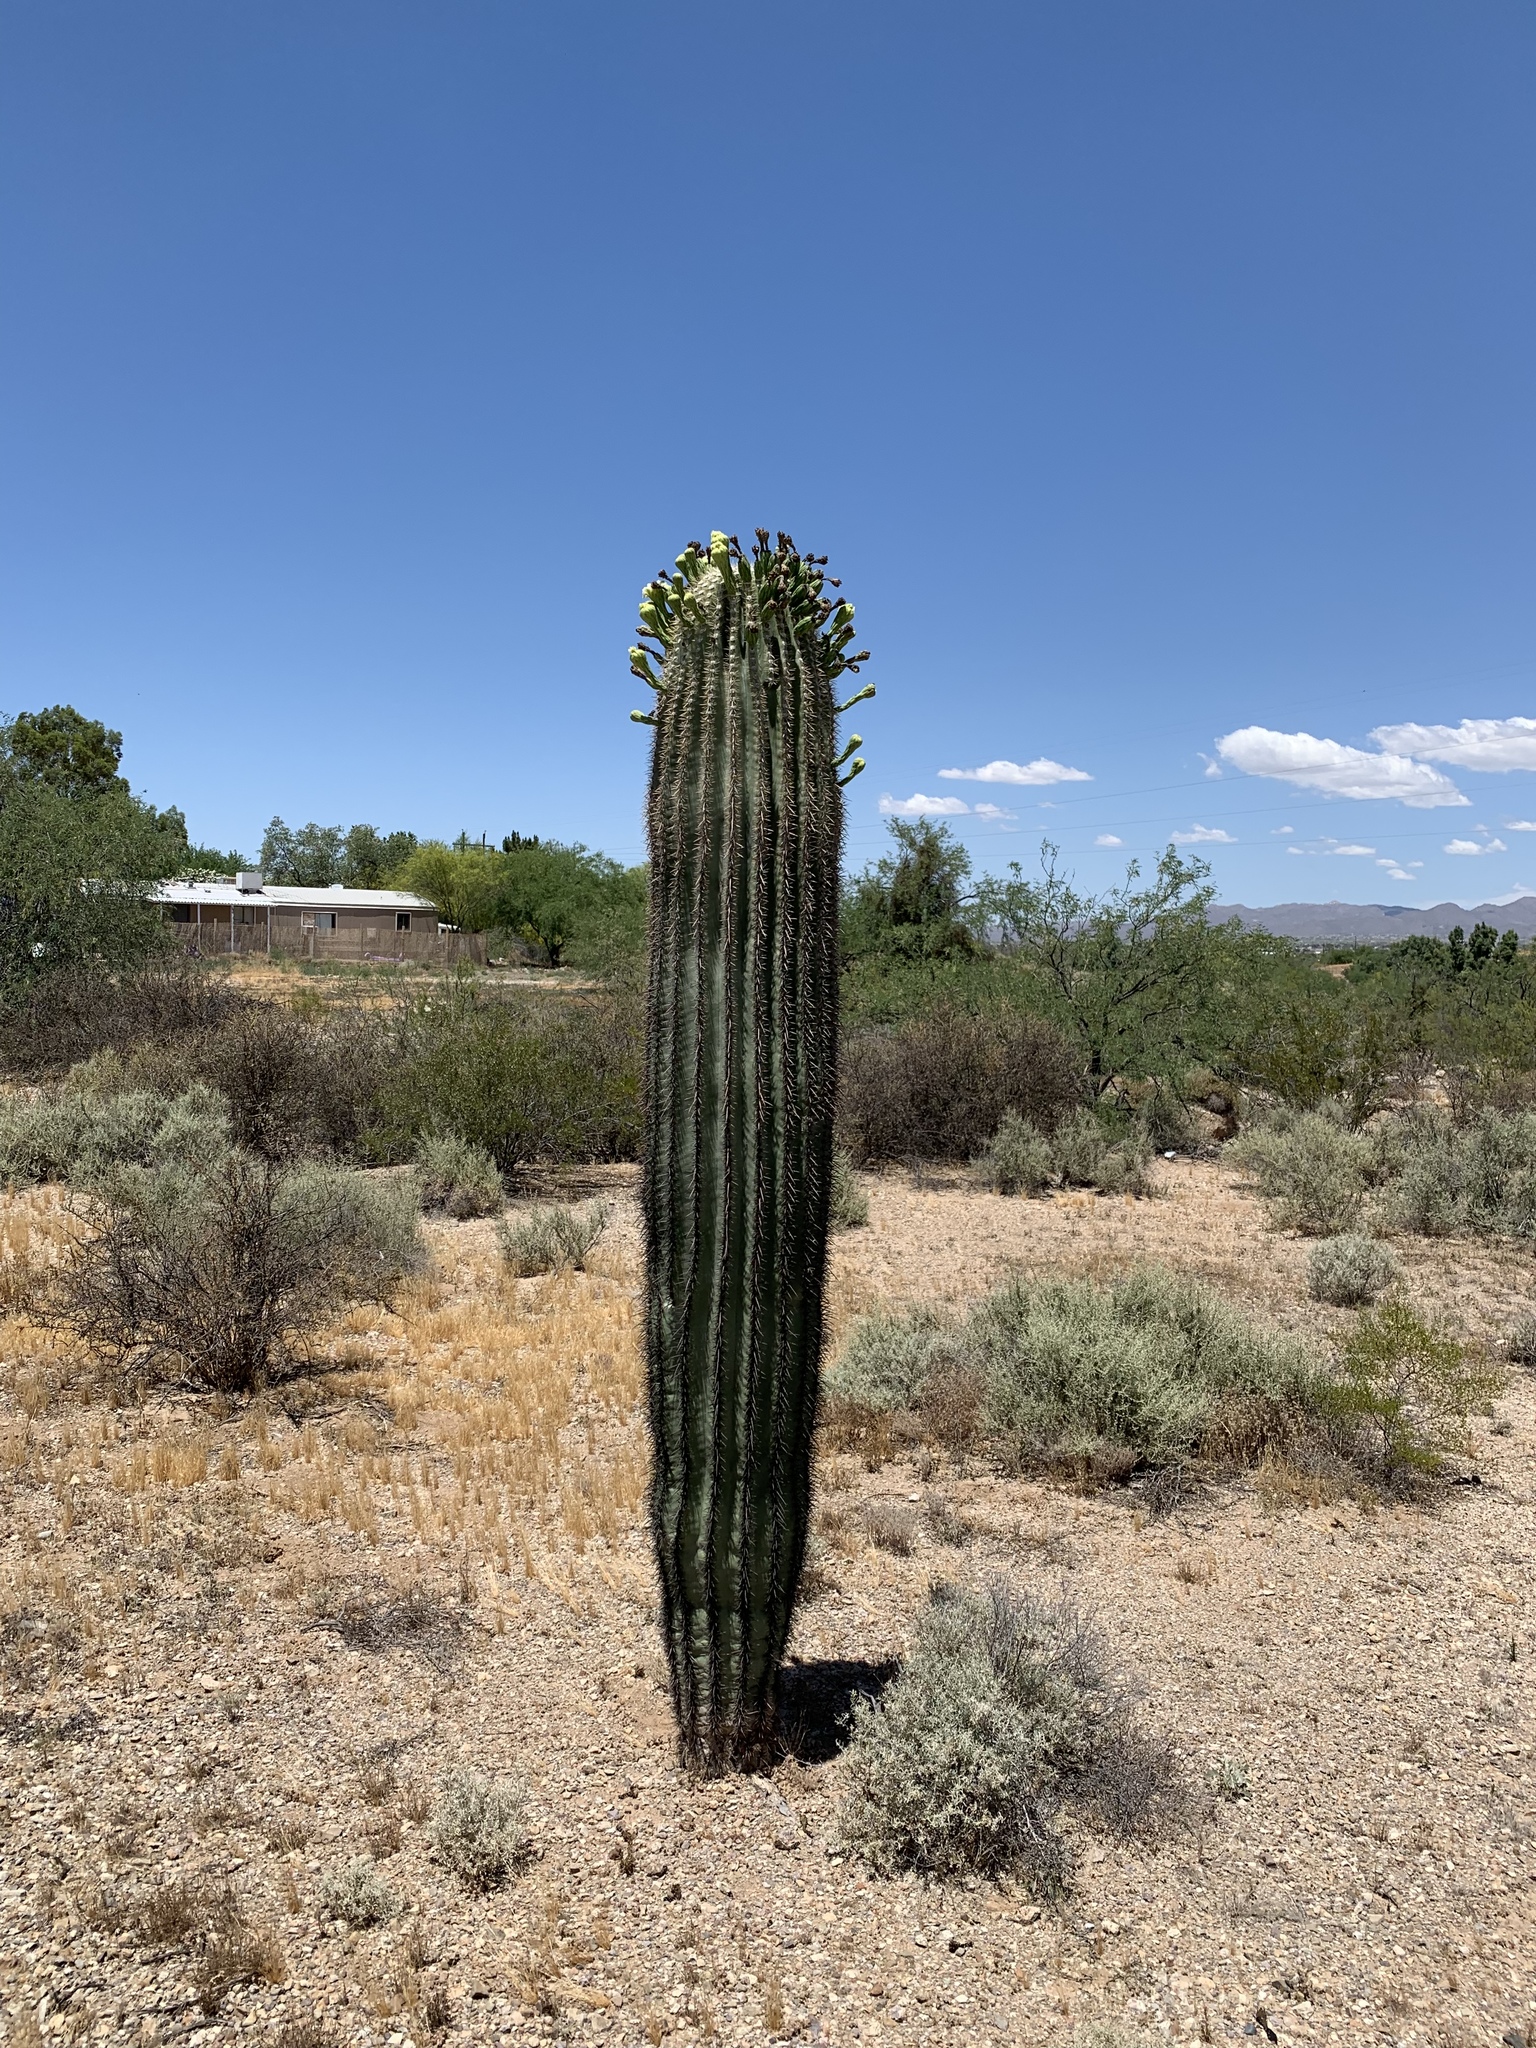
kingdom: Plantae
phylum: Tracheophyta
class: Magnoliopsida
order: Caryophyllales
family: Cactaceae
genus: Carnegiea
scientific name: Carnegiea gigantea
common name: Saguaro
